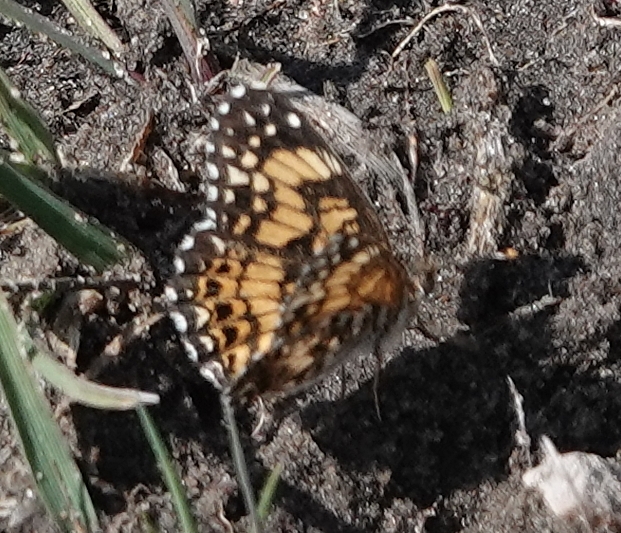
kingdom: Animalia
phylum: Arthropoda
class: Insecta
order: Lepidoptera
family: Nymphalidae
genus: Chlosyne
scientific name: Chlosyne gorgone
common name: Gorgone checkerspot
